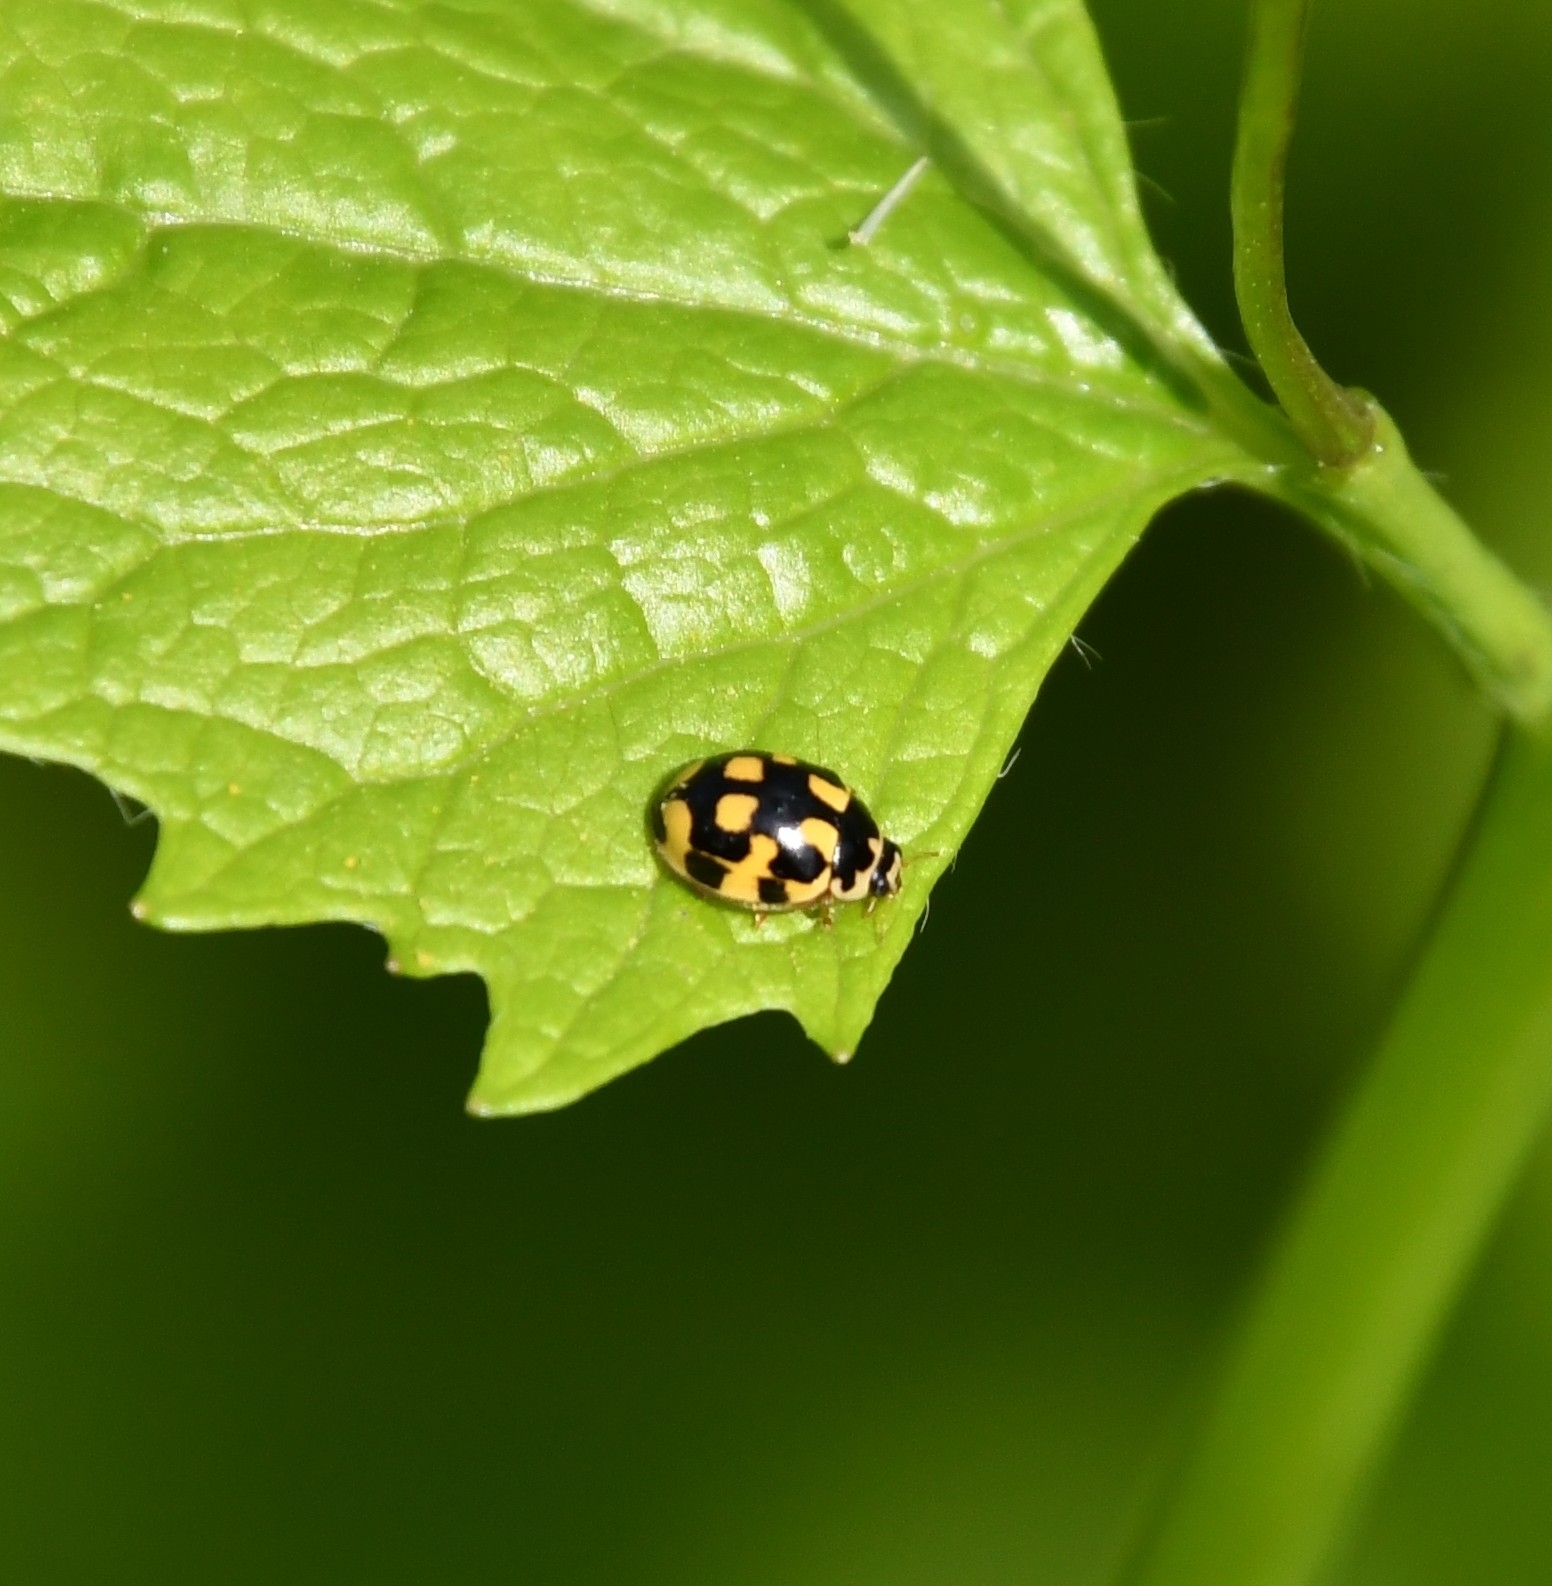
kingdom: Animalia
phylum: Arthropoda
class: Insecta
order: Coleoptera
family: Coccinellidae
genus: Propylaea
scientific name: Propylaea quatuordecimpunctata
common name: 14-spotted ladybird beetle
